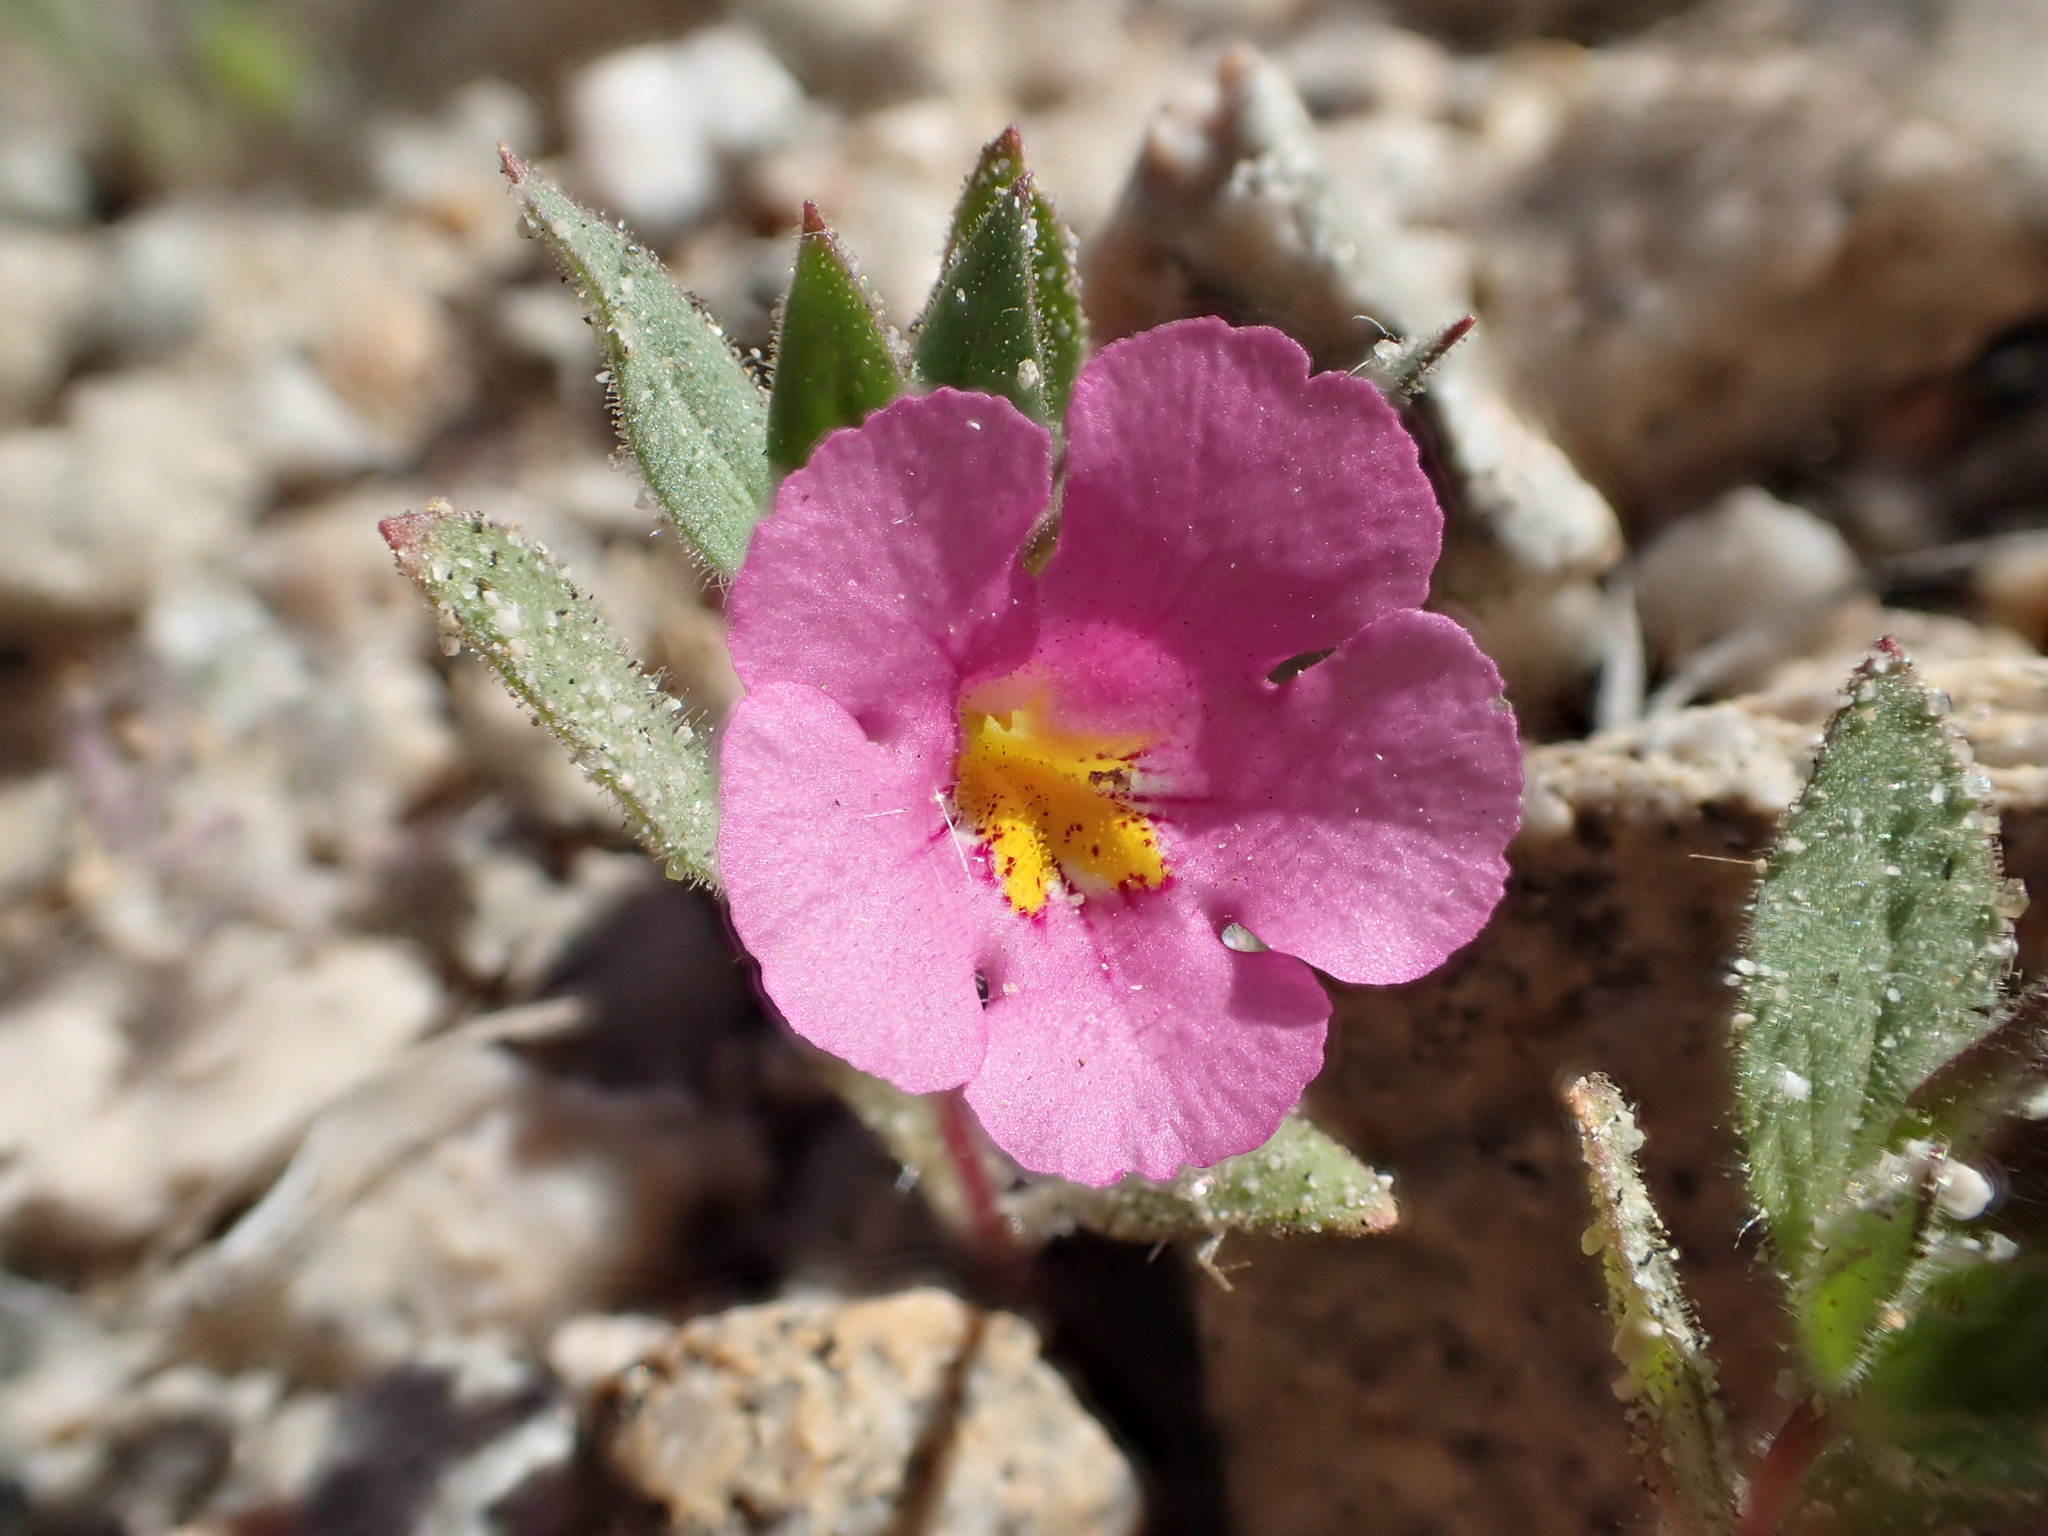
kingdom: Plantae
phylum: Tracheophyta
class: Magnoliopsida
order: Lamiales
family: Phrymaceae
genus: Diplacus
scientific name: Diplacus bigelovii
